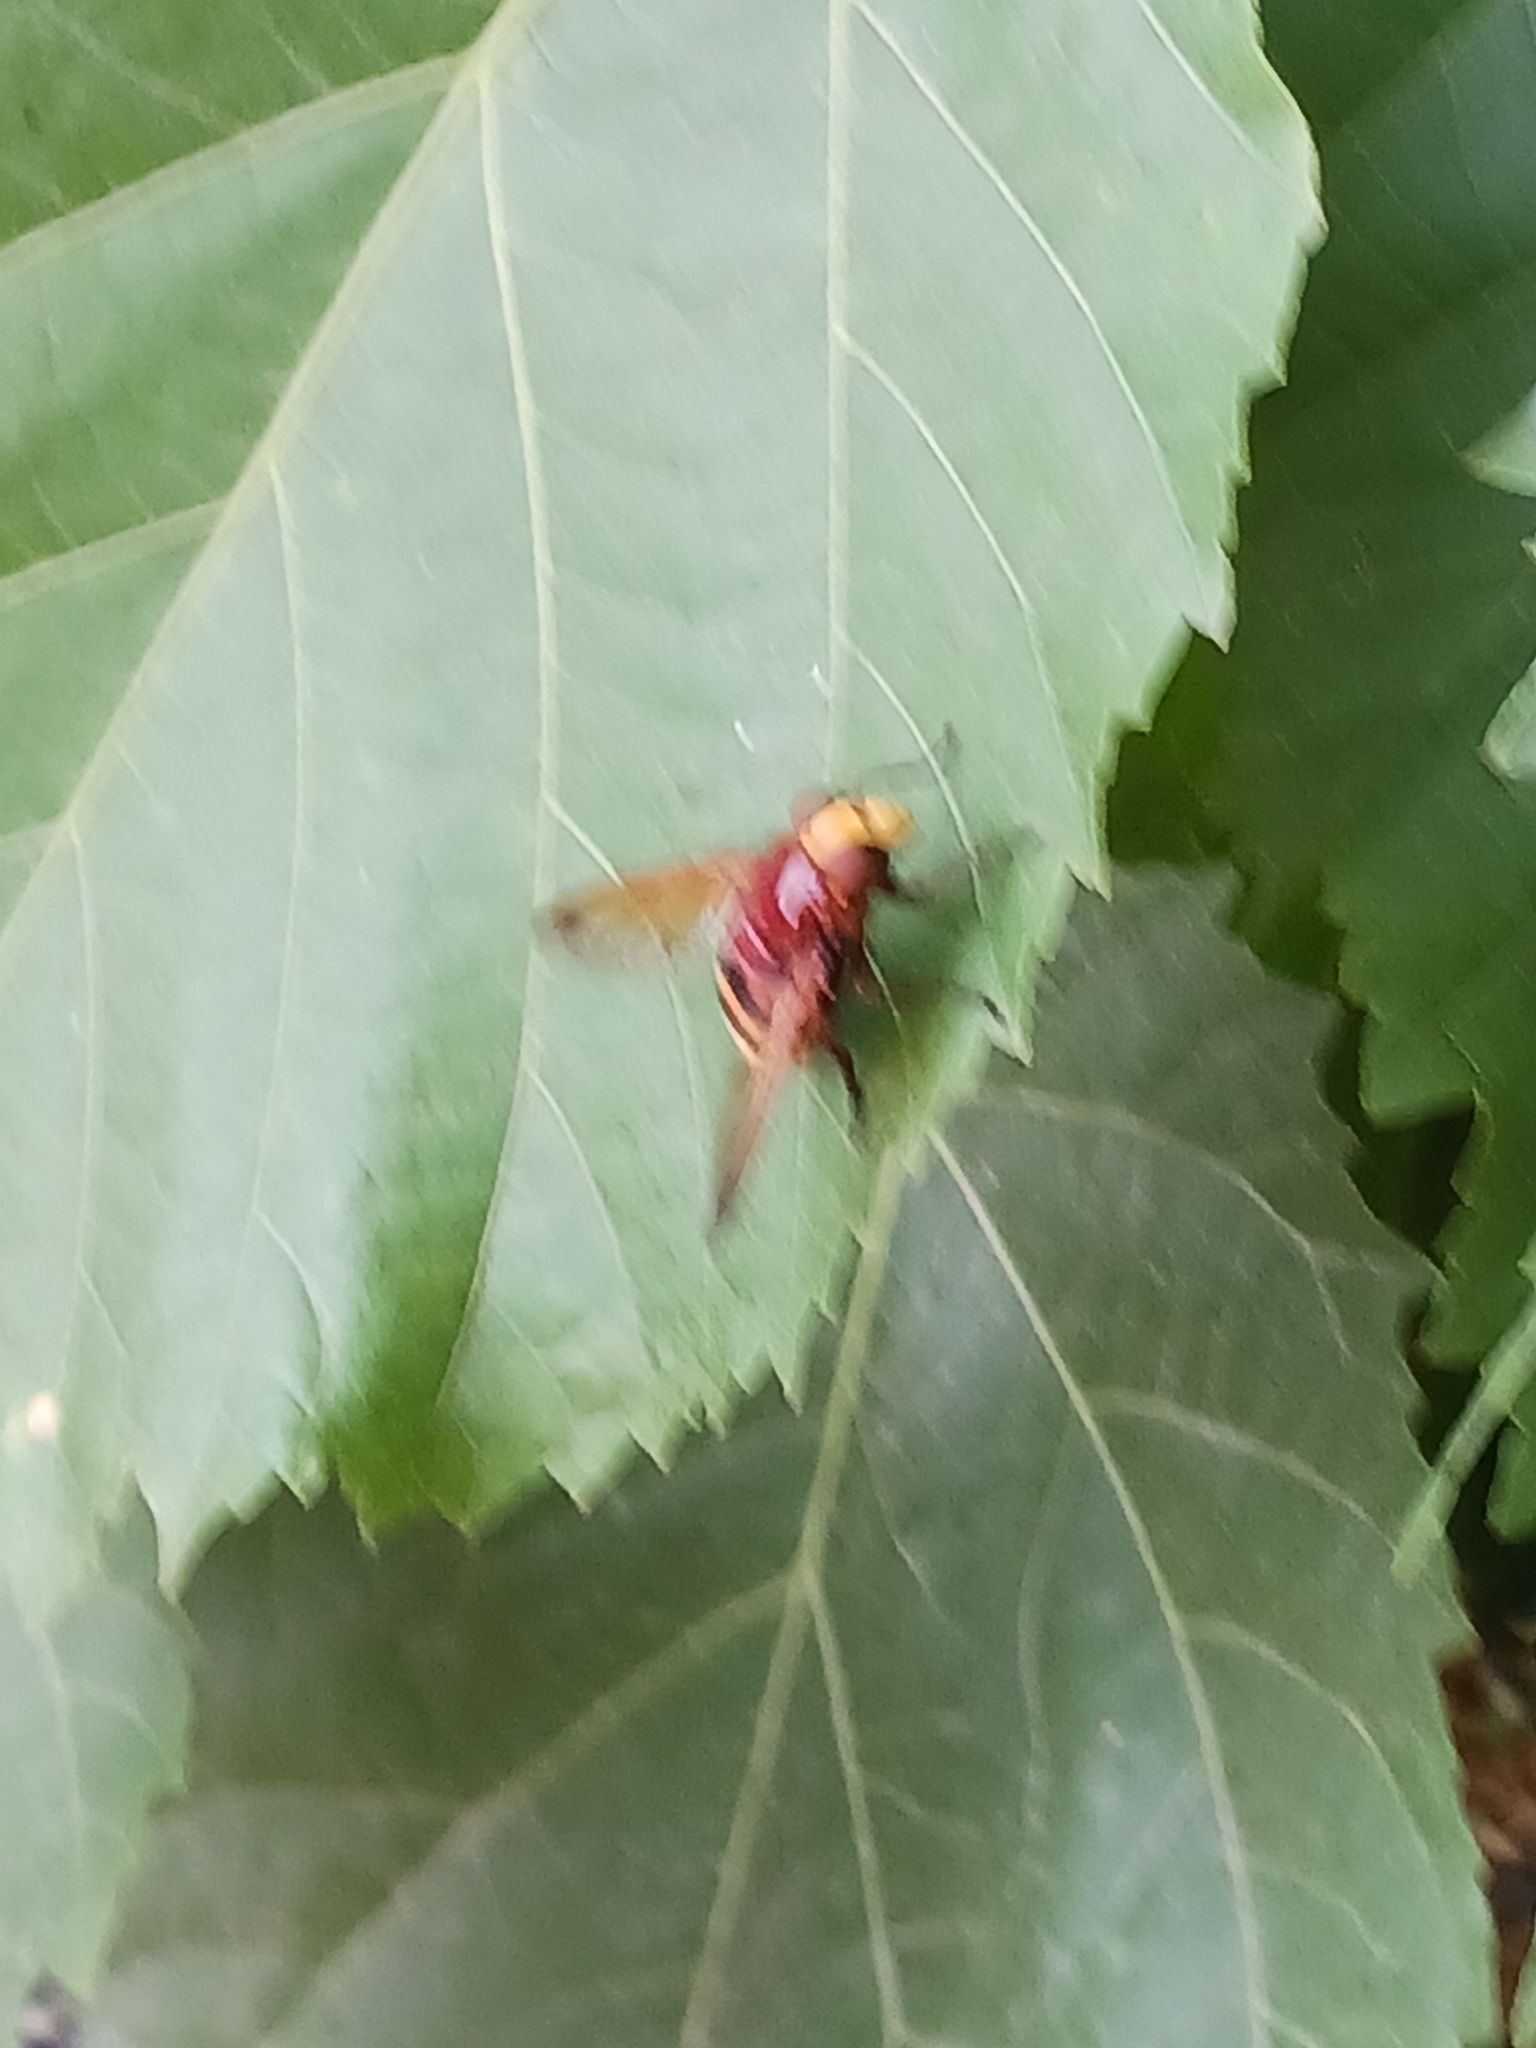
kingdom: Animalia
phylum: Arthropoda
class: Insecta
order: Diptera
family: Syrphidae
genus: Volucella
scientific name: Volucella zonaria
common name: Hornet hoverfly
